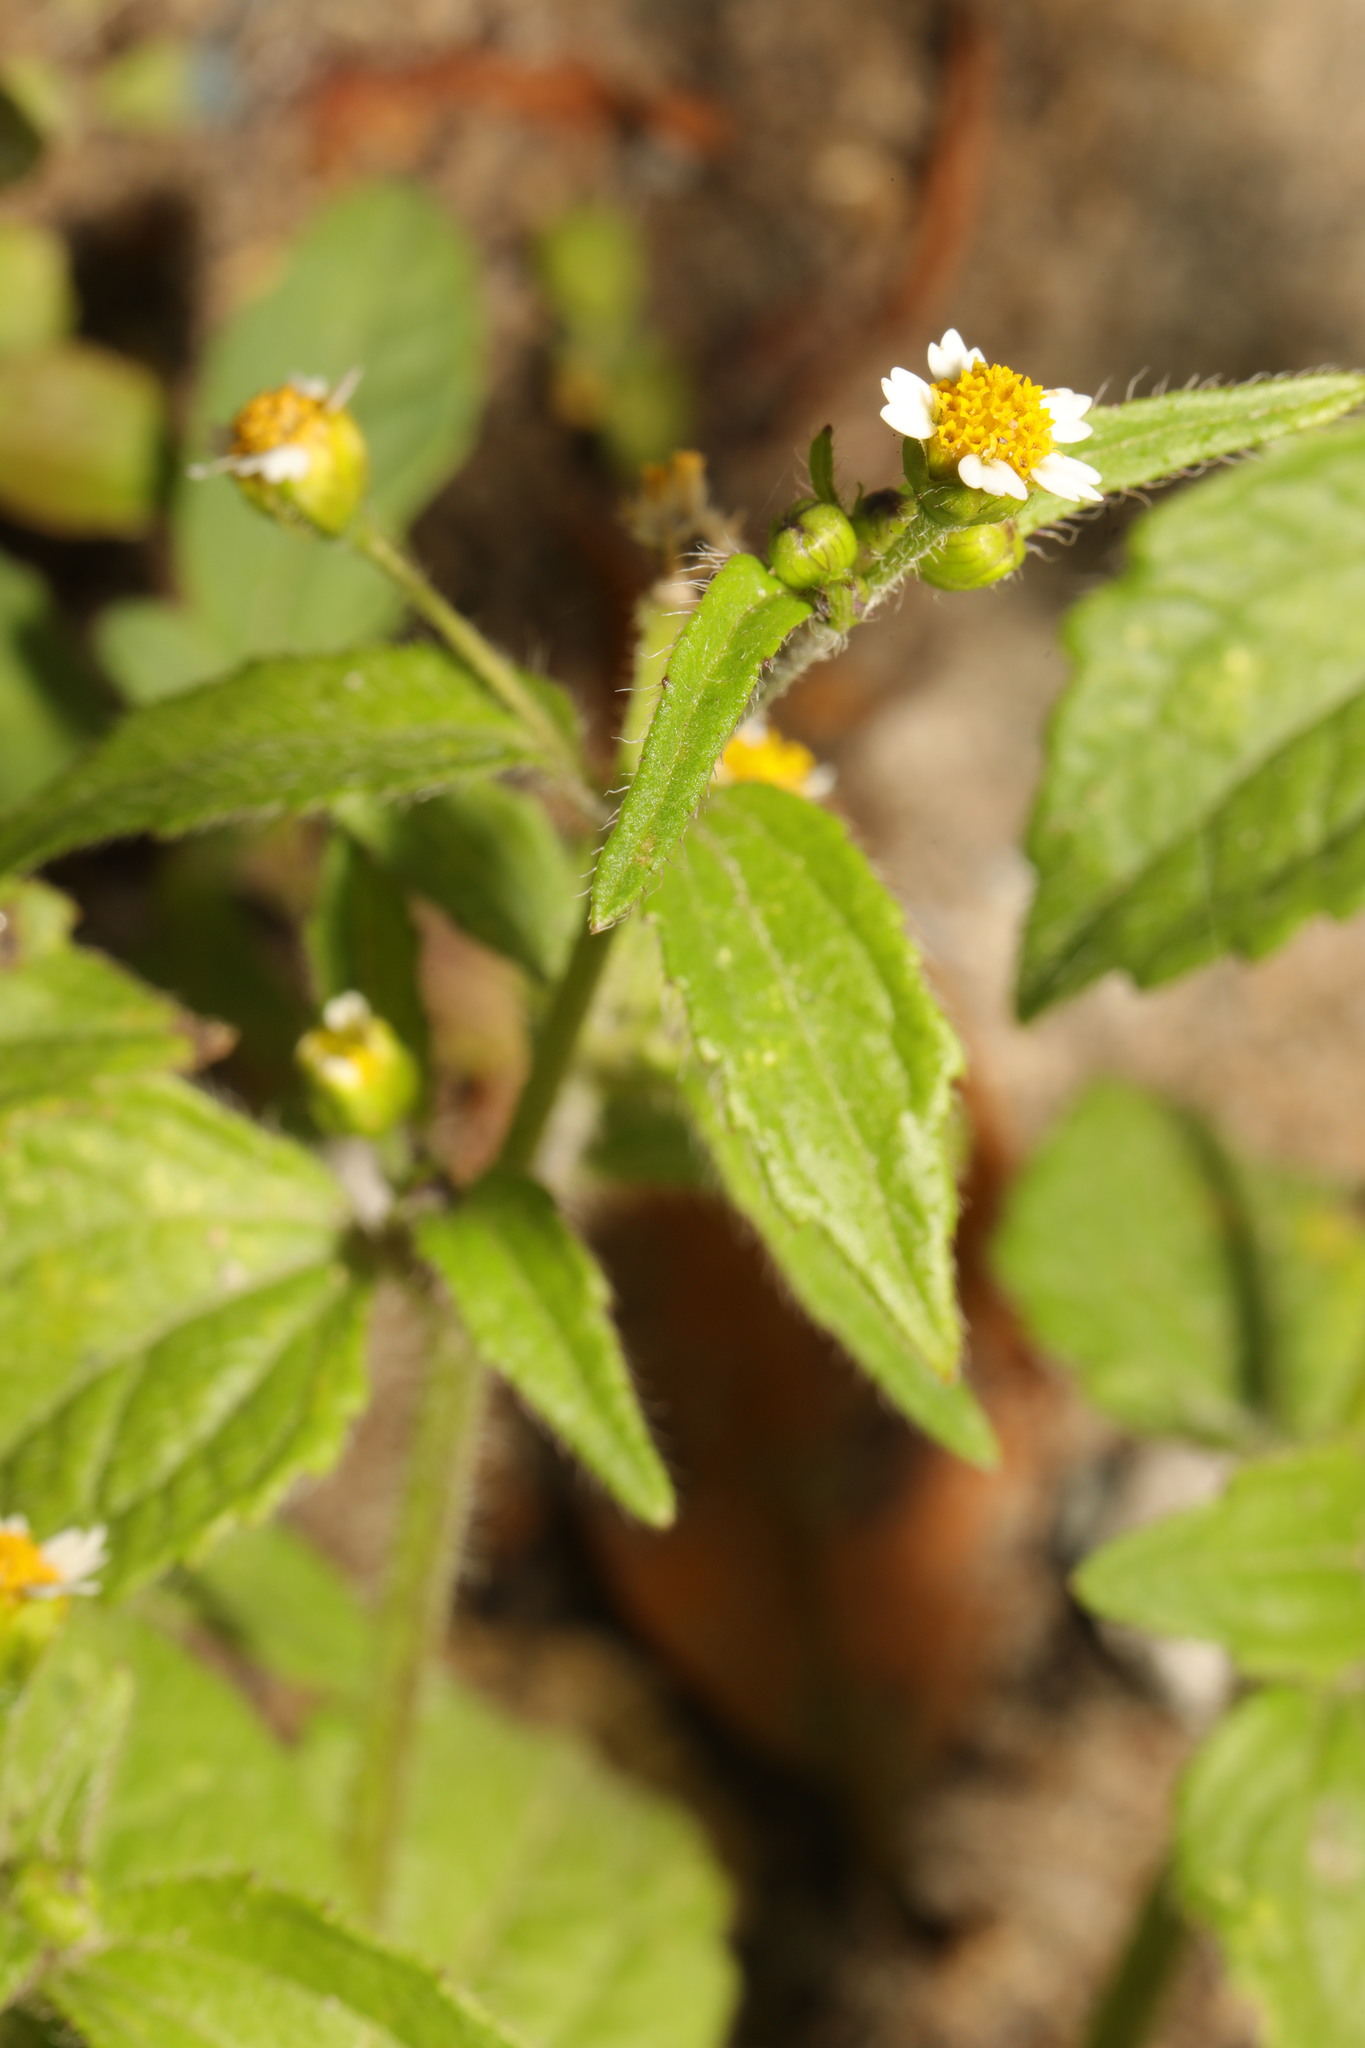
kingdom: Plantae
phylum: Tracheophyta
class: Magnoliopsida
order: Asterales
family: Asteraceae
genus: Galinsoga
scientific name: Galinsoga quadriradiata
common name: Shaggy soldier
